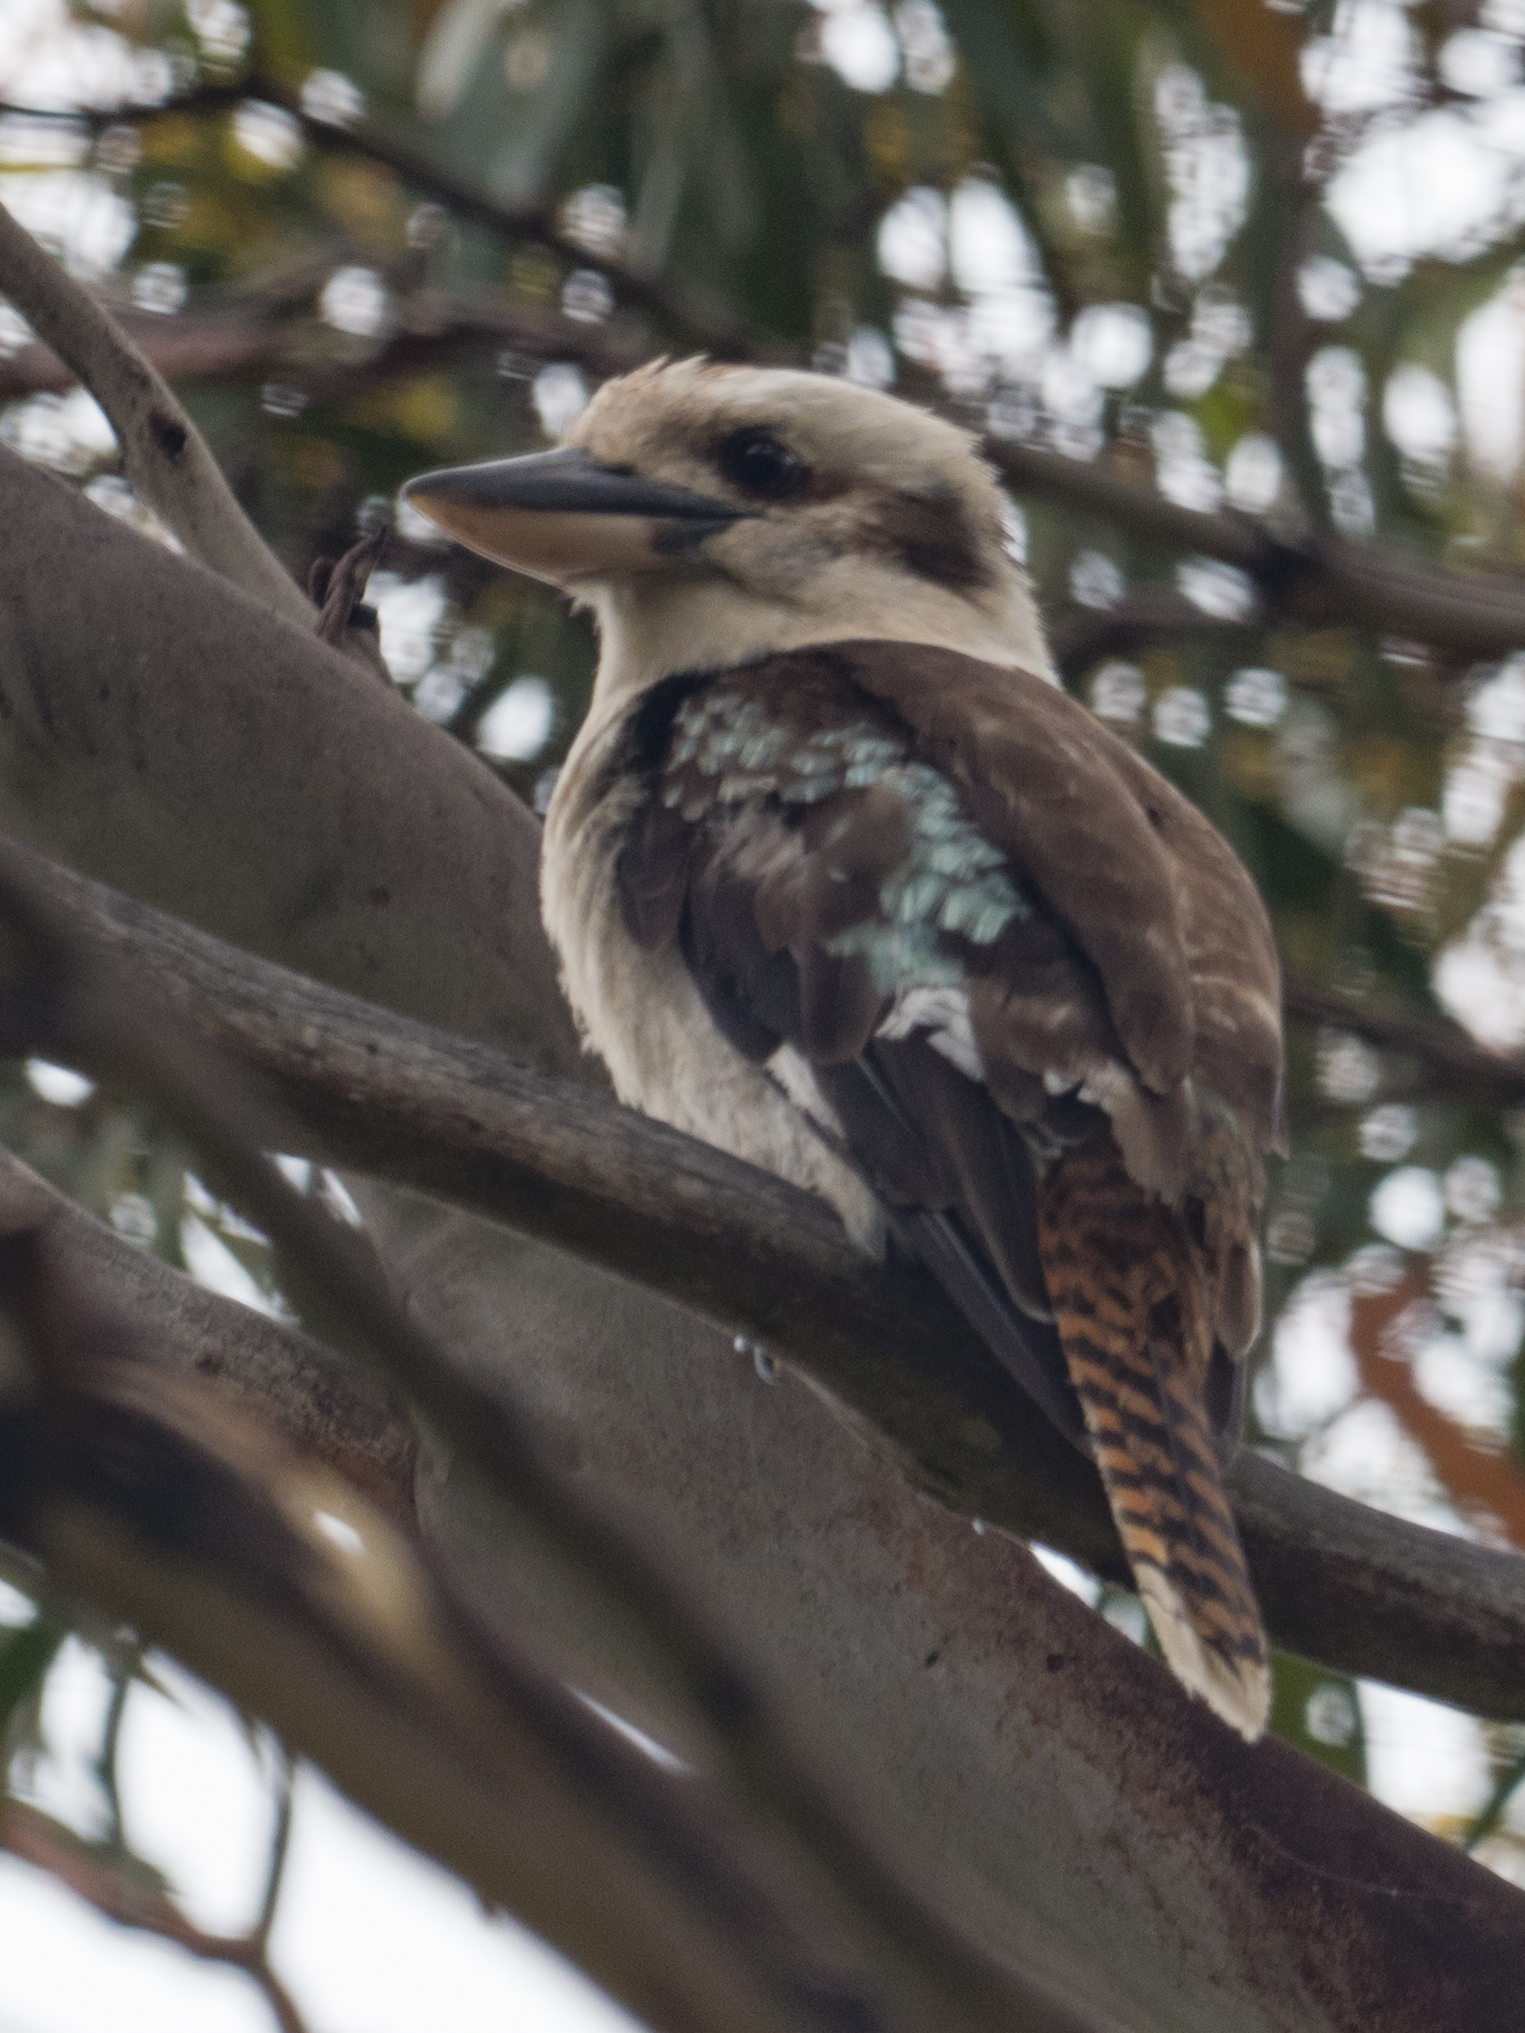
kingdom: Animalia
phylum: Chordata
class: Aves
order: Coraciiformes
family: Alcedinidae
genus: Dacelo
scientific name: Dacelo novaeguineae
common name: Laughing kookaburra
